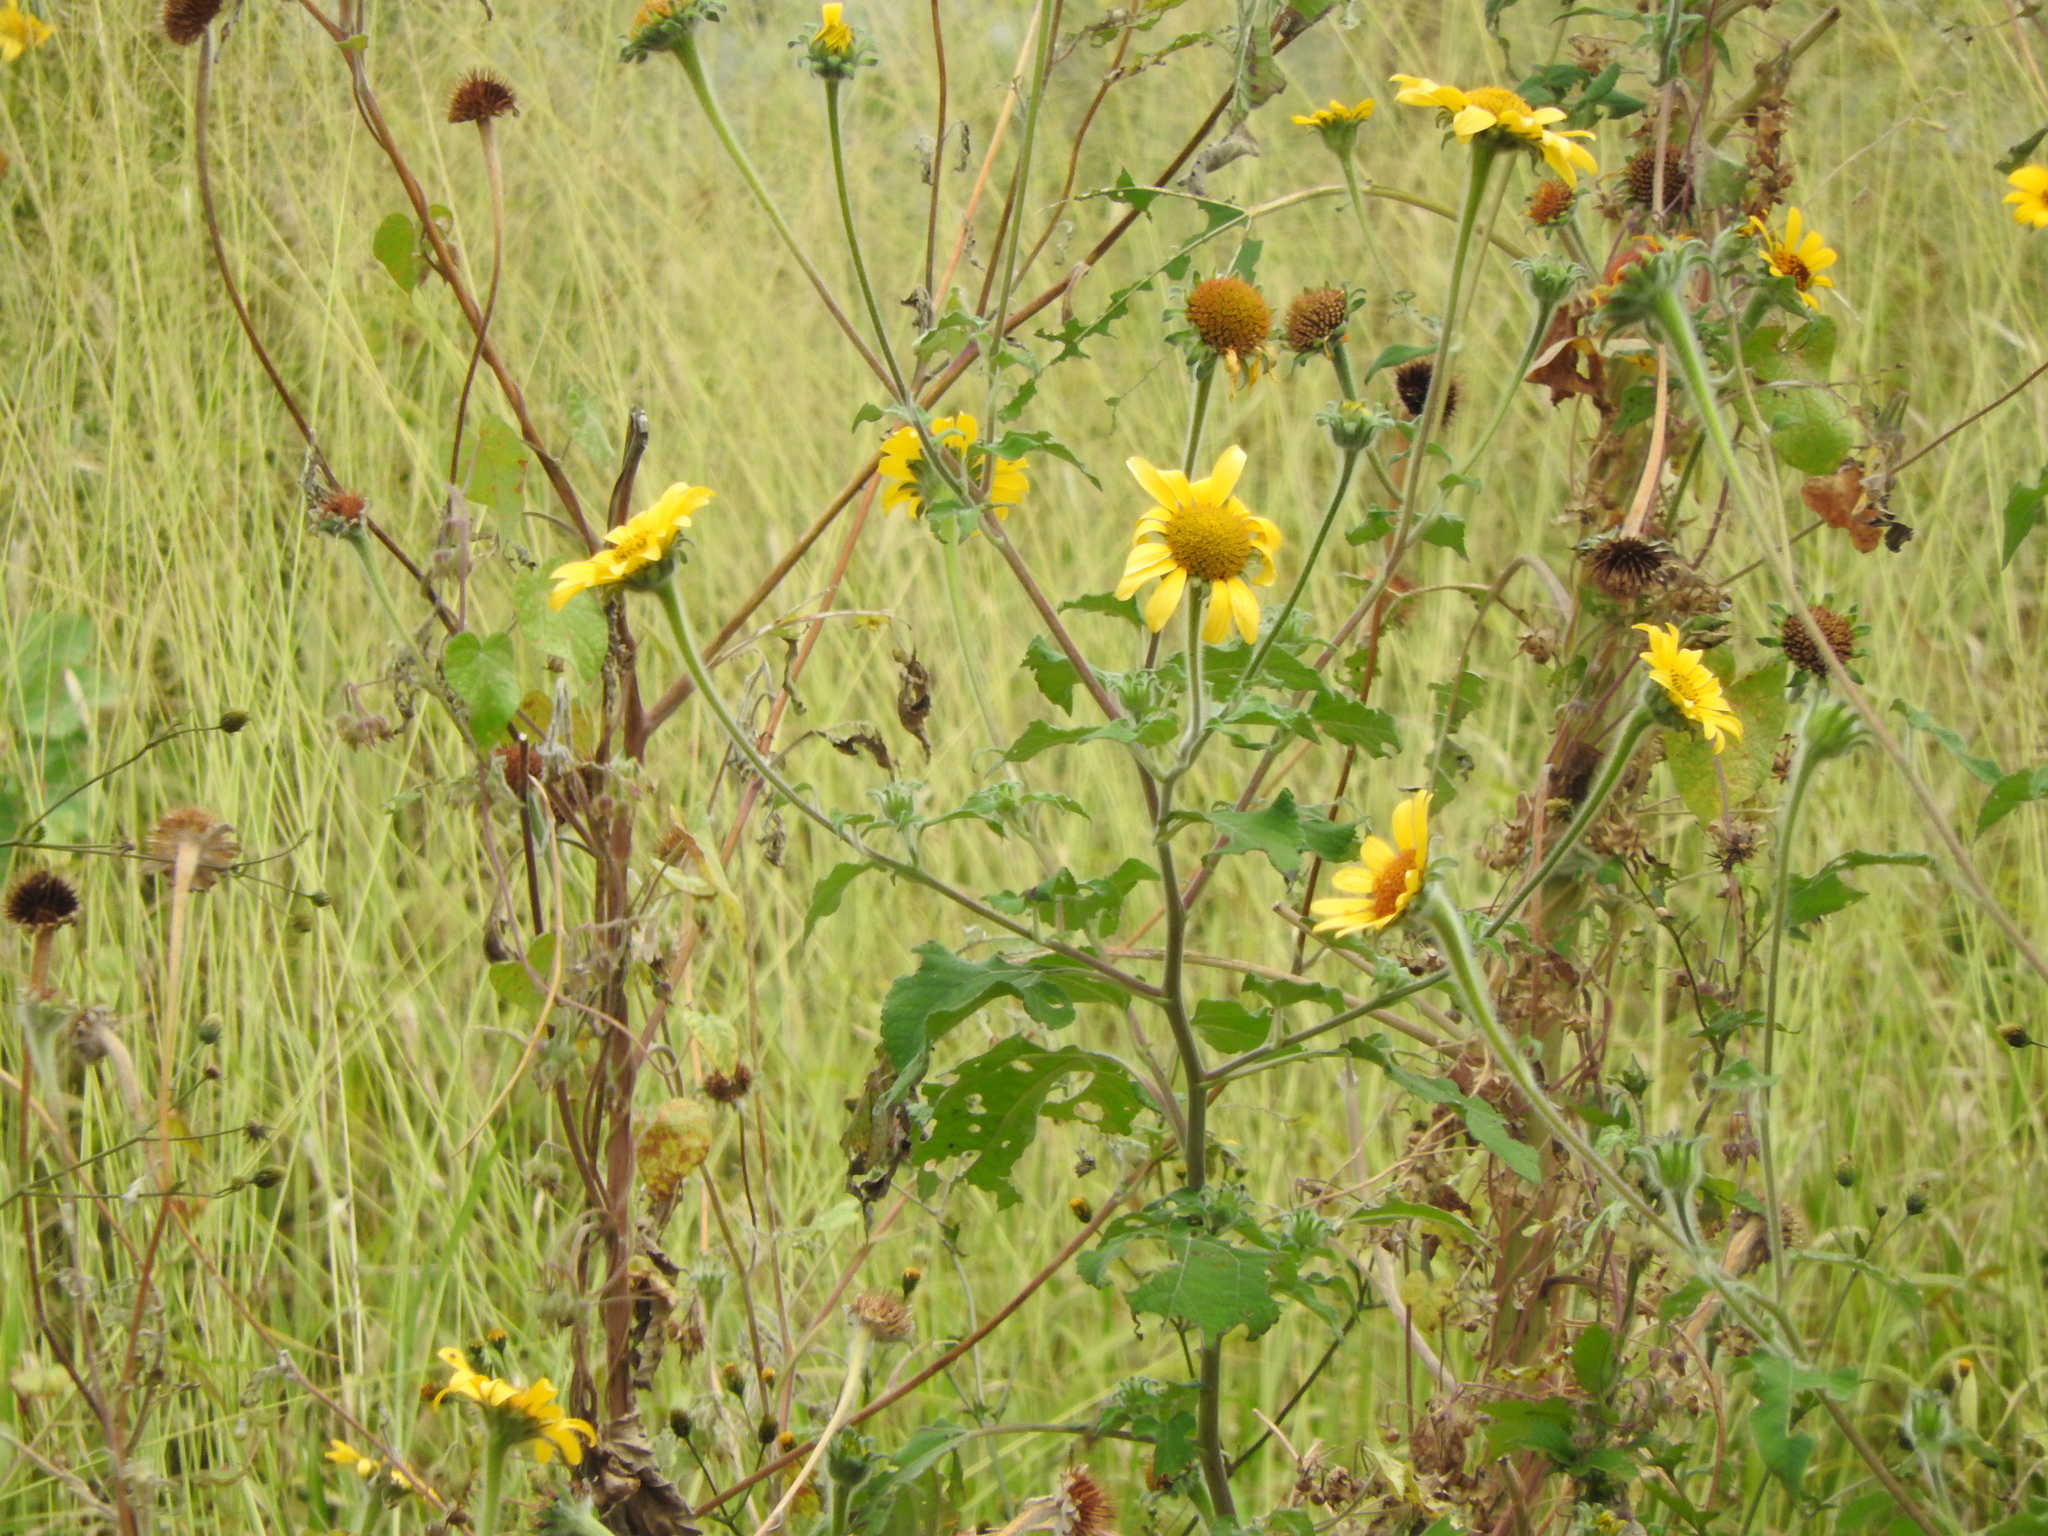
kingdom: Plantae
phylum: Tracheophyta
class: Magnoliopsida
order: Asterales
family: Asteraceae
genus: Tithonia
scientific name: Tithonia tubaeformis
